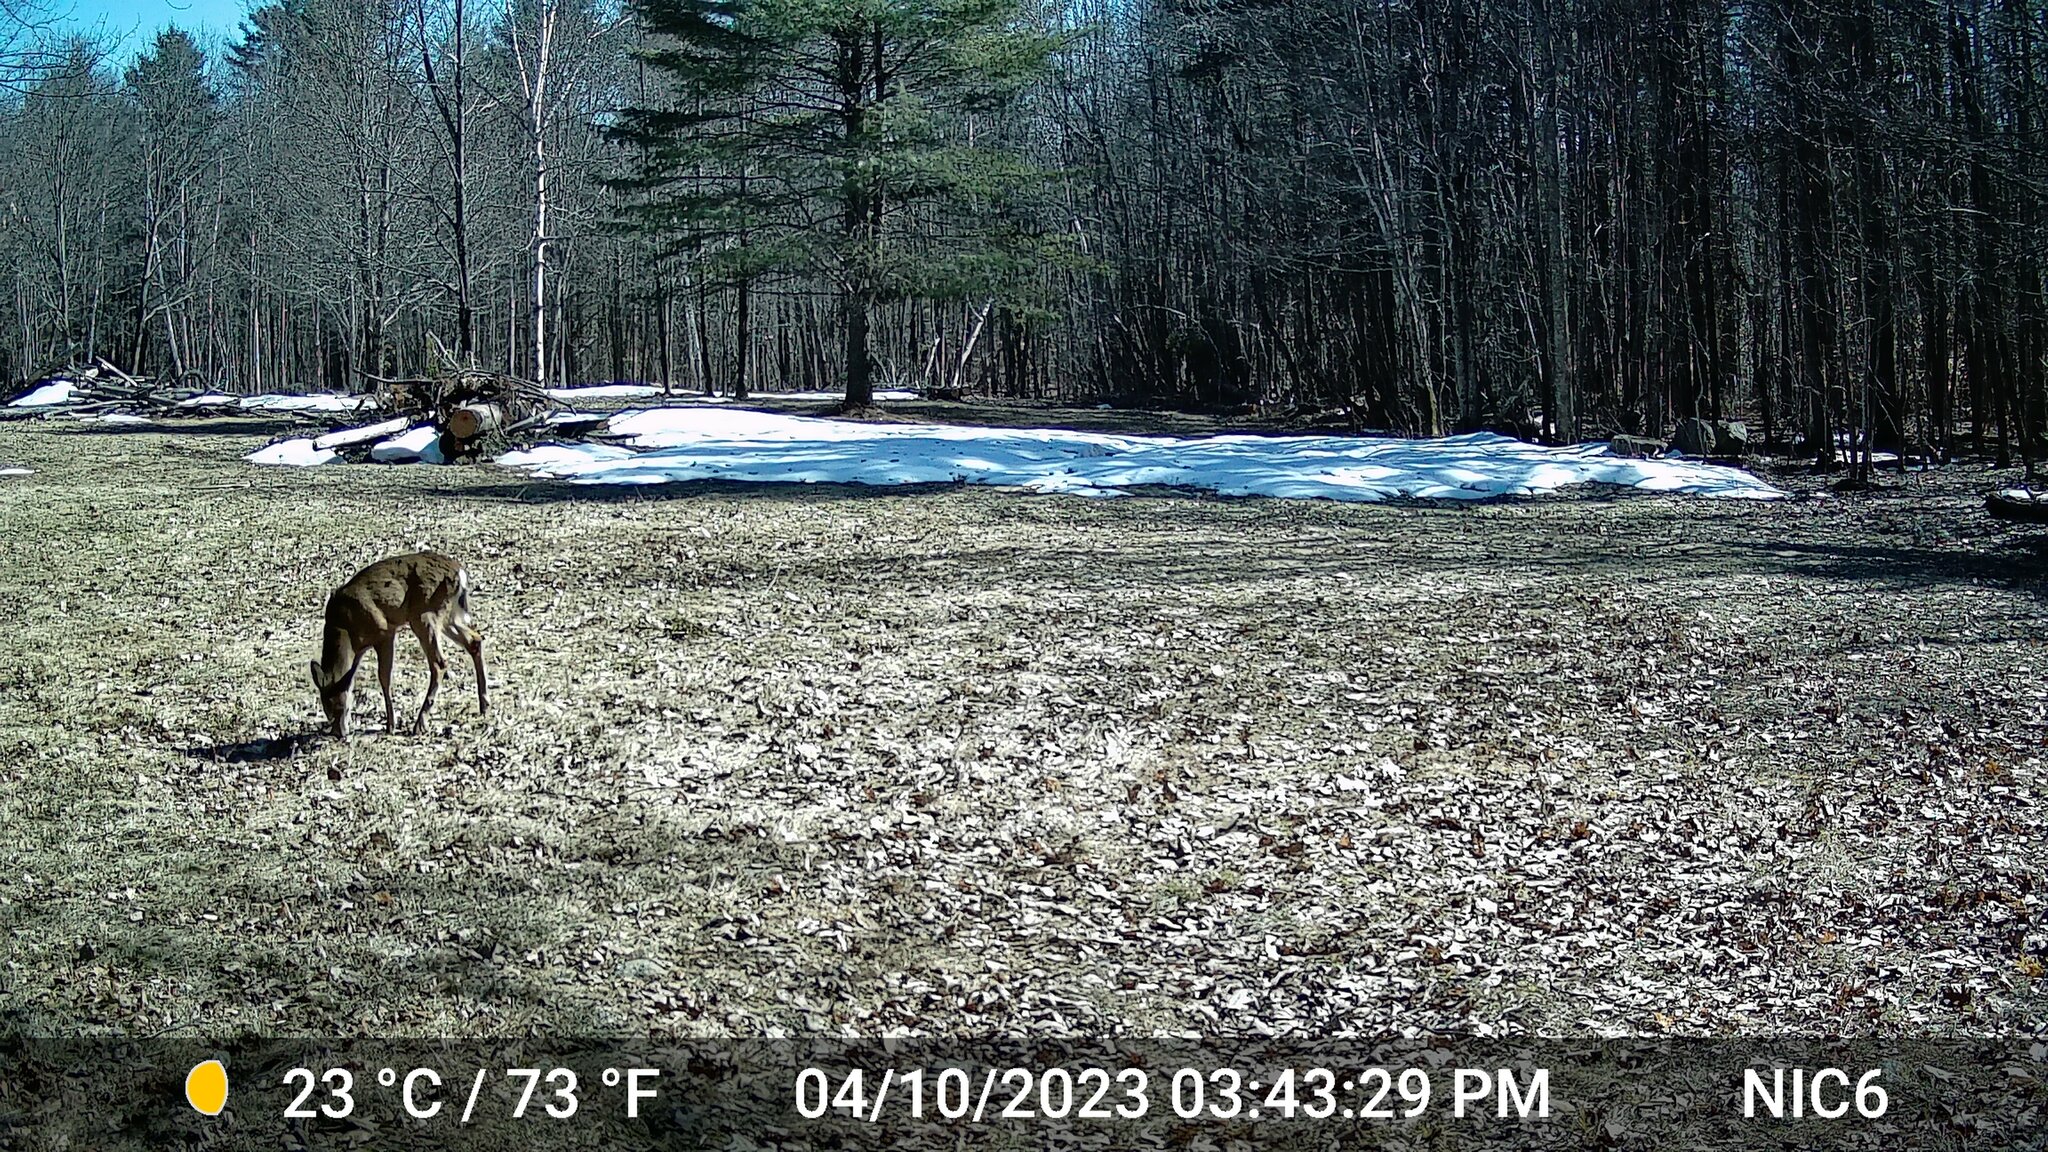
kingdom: Animalia
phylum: Chordata
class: Mammalia
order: Artiodactyla
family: Cervidae
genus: Odocoileus
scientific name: Odocoileus virginianus
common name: White-tailed deer
